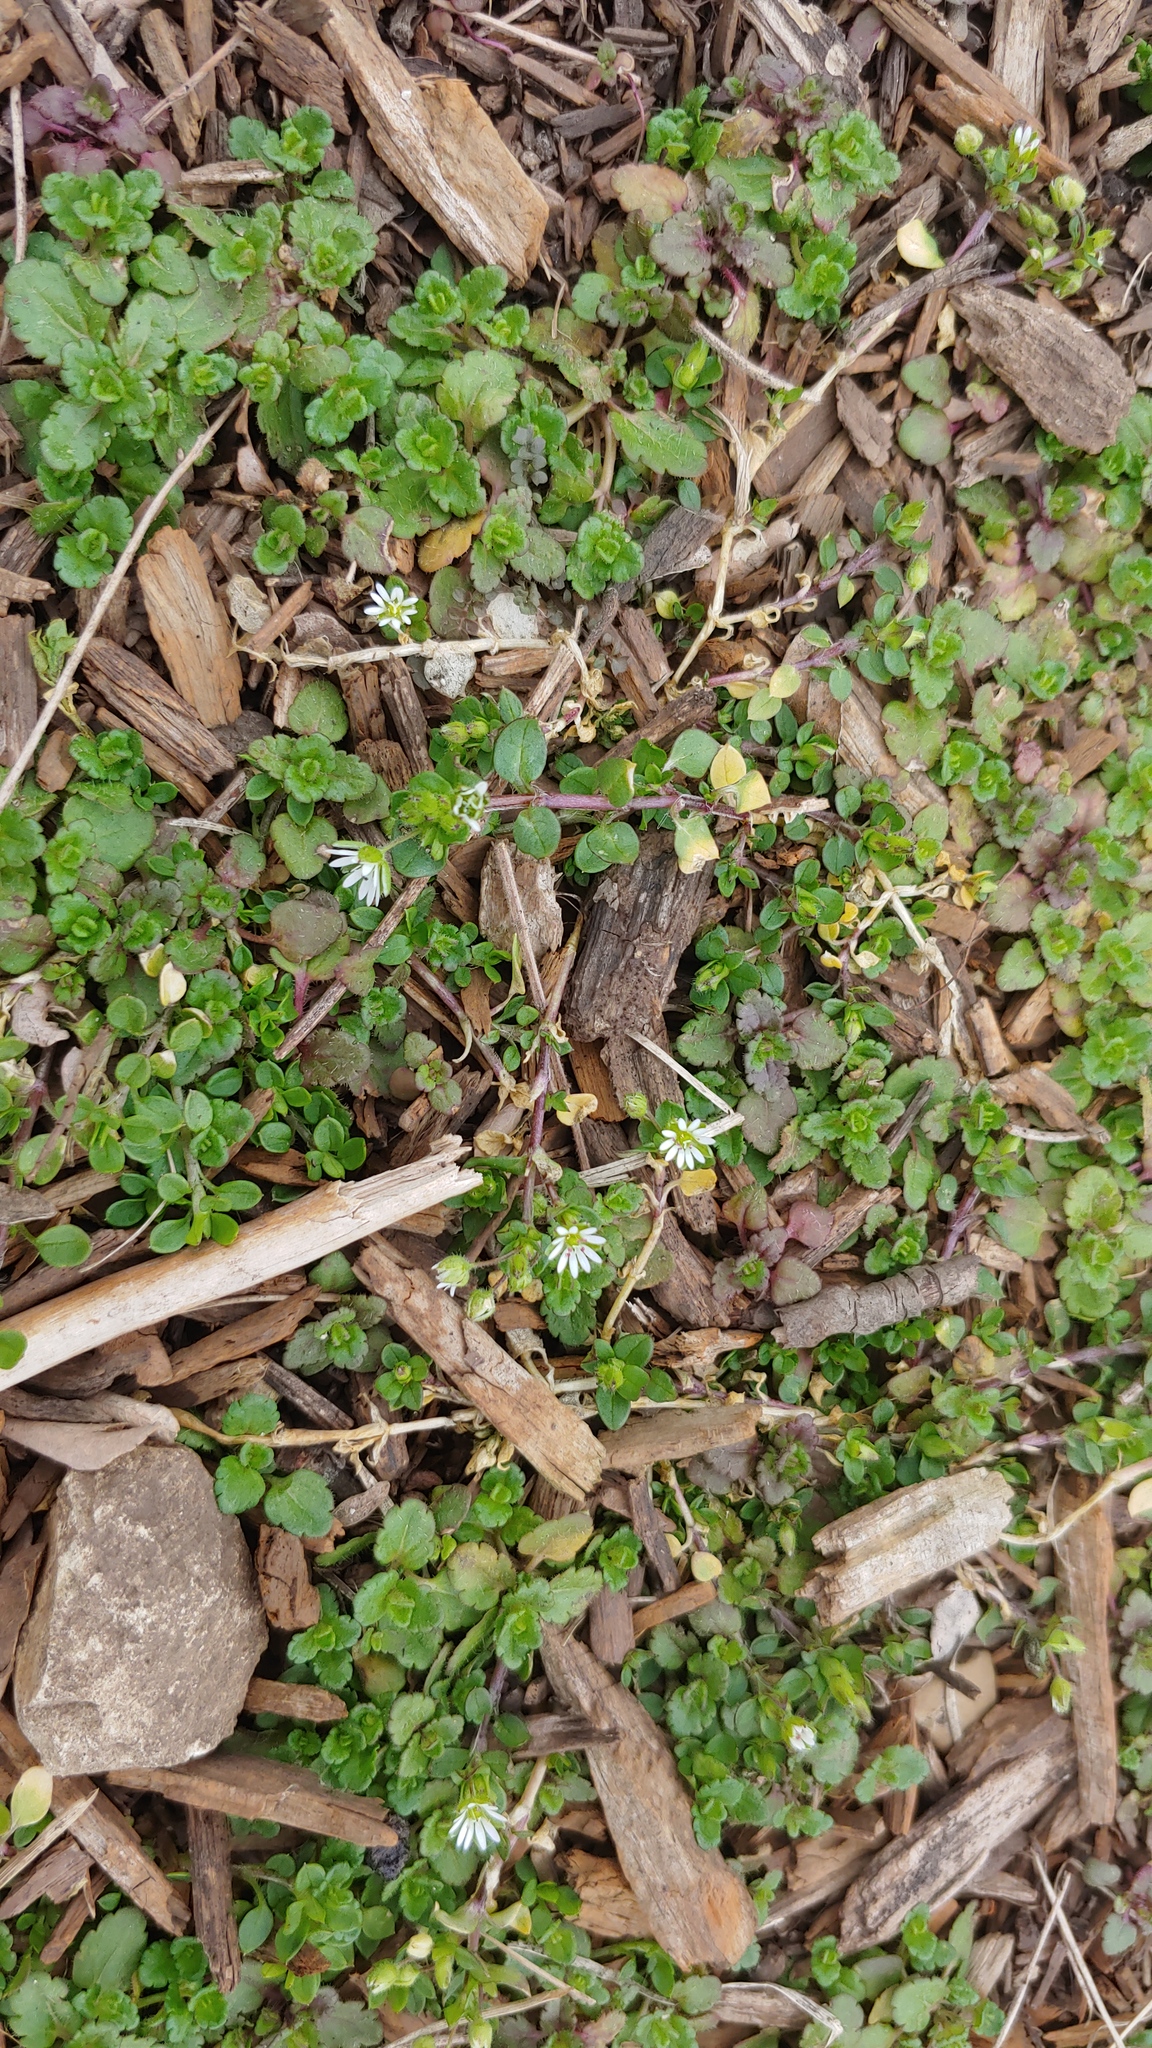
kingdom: Plantae
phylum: Tracheophyta
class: Magnoliopsida
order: Caryophyllales
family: Caryophyllaceae
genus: Stellaria
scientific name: Stellaria media
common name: Common chickweed
